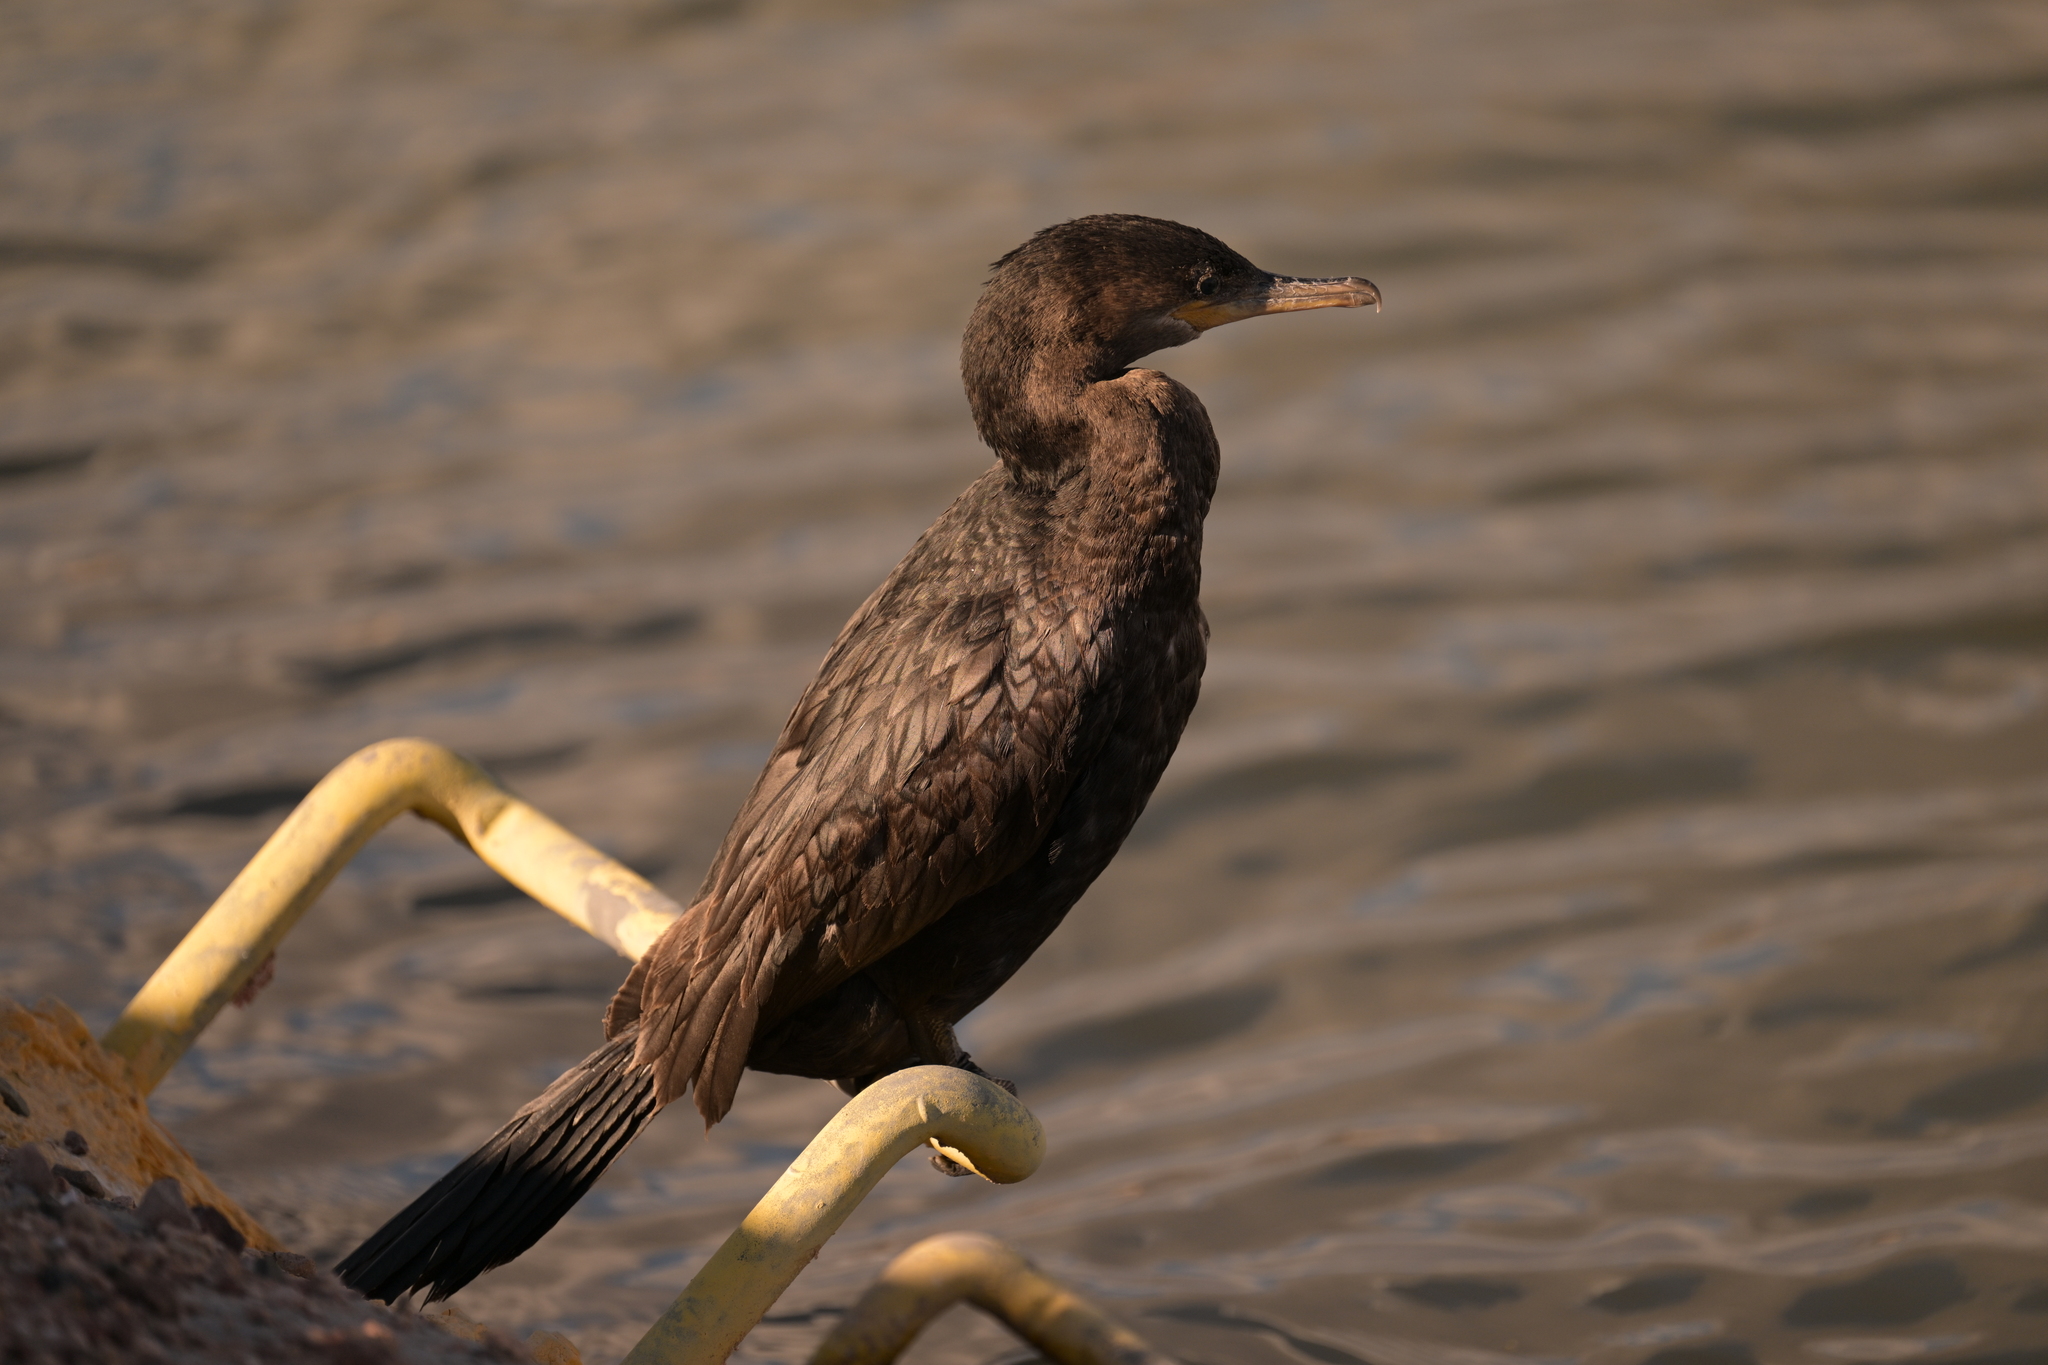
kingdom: Animalia
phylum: Chordata
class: Aves
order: Suliformes
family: Phalacrocoracidae
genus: Phalacrocorax
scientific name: Phalacrocorax brasilianus
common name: Neotropic cormorant
